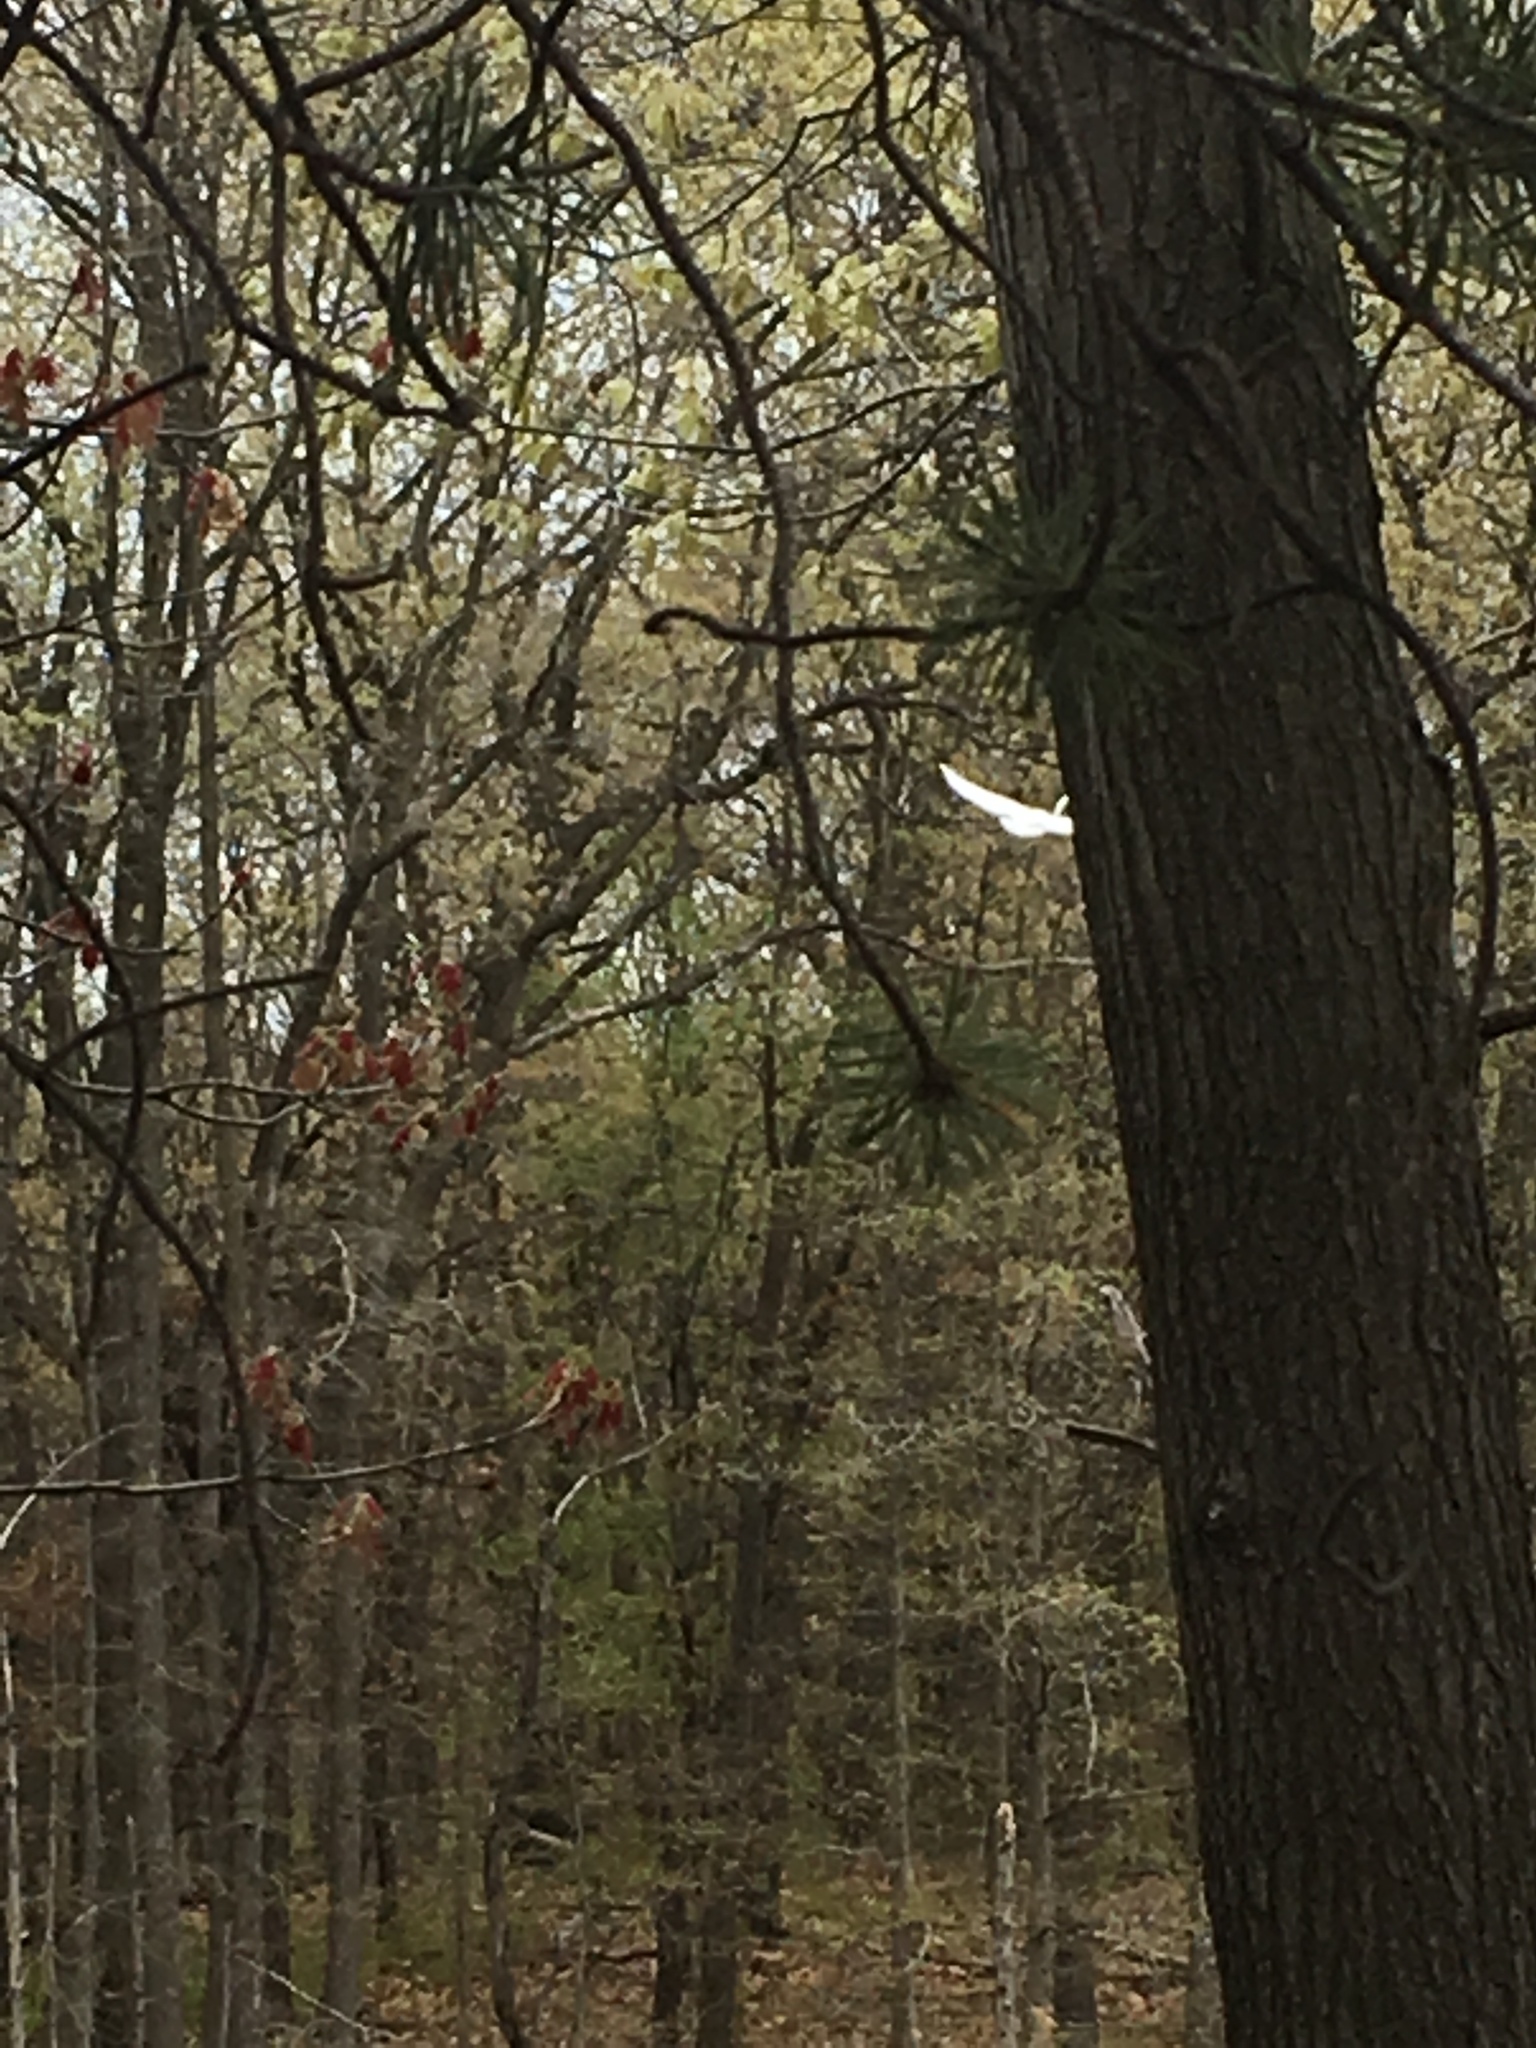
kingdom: Animalia
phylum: Chordata
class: Aves
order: Pelecaniformes
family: Ardeidae
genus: Ardea
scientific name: Ardea alba
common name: Great egret
